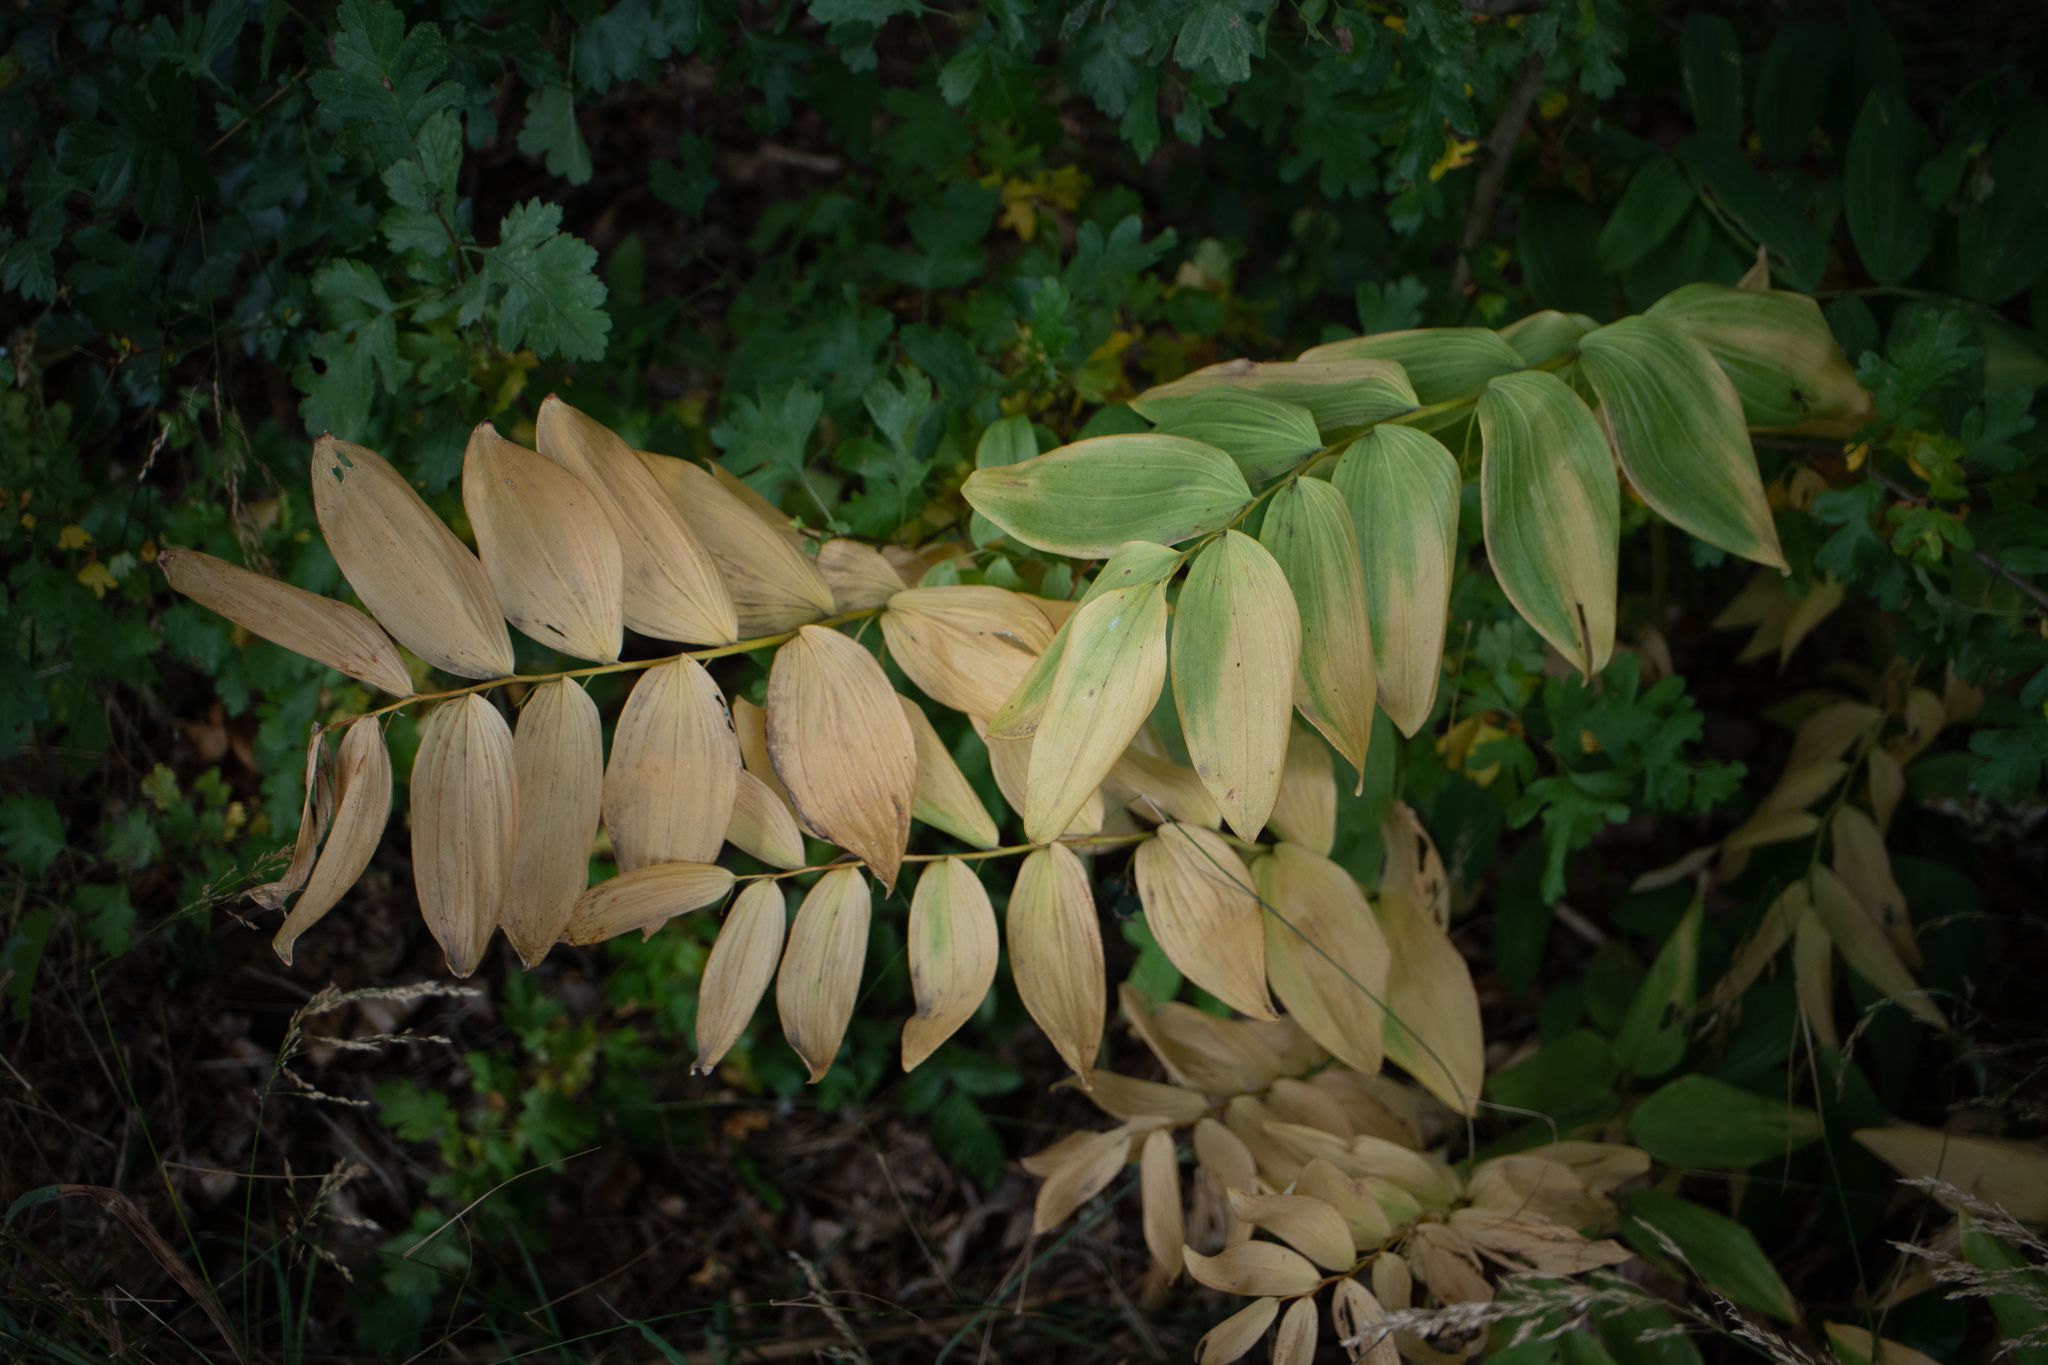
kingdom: Plantae
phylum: Tracheophyta
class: Liliopsida
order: Asparagales
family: Asparagaceae
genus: Polygonatum
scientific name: Polygonatum multiflorum
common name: Solomon's-seal
